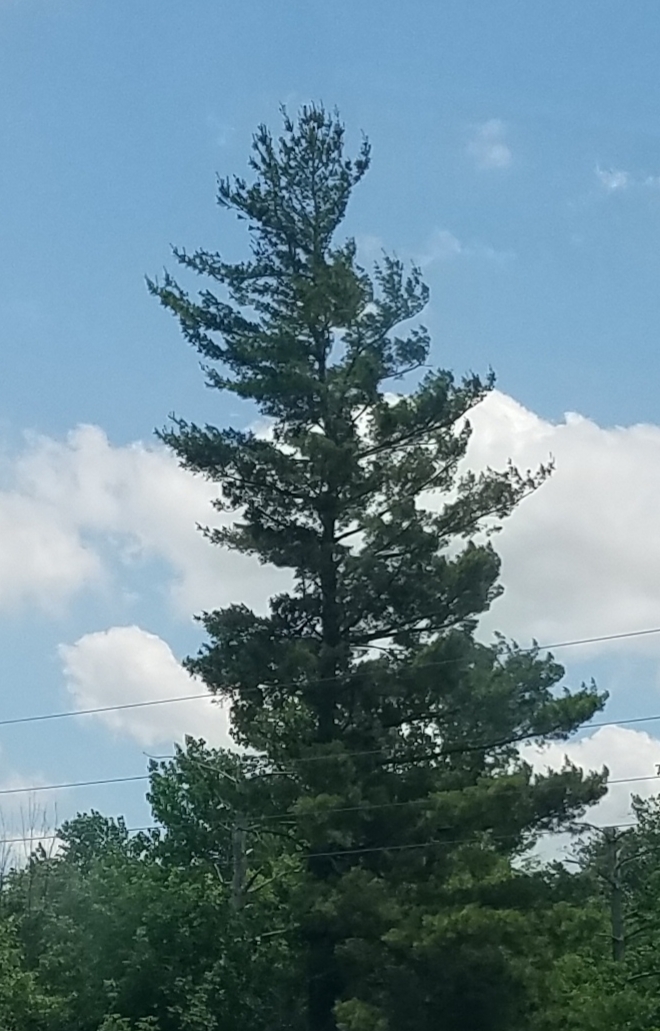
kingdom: Plantae
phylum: Tracheophyta
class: Pinopsida
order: Pinales
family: Pinaceae
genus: Pinus
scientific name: Pinus strobus
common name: Weymouth pine
